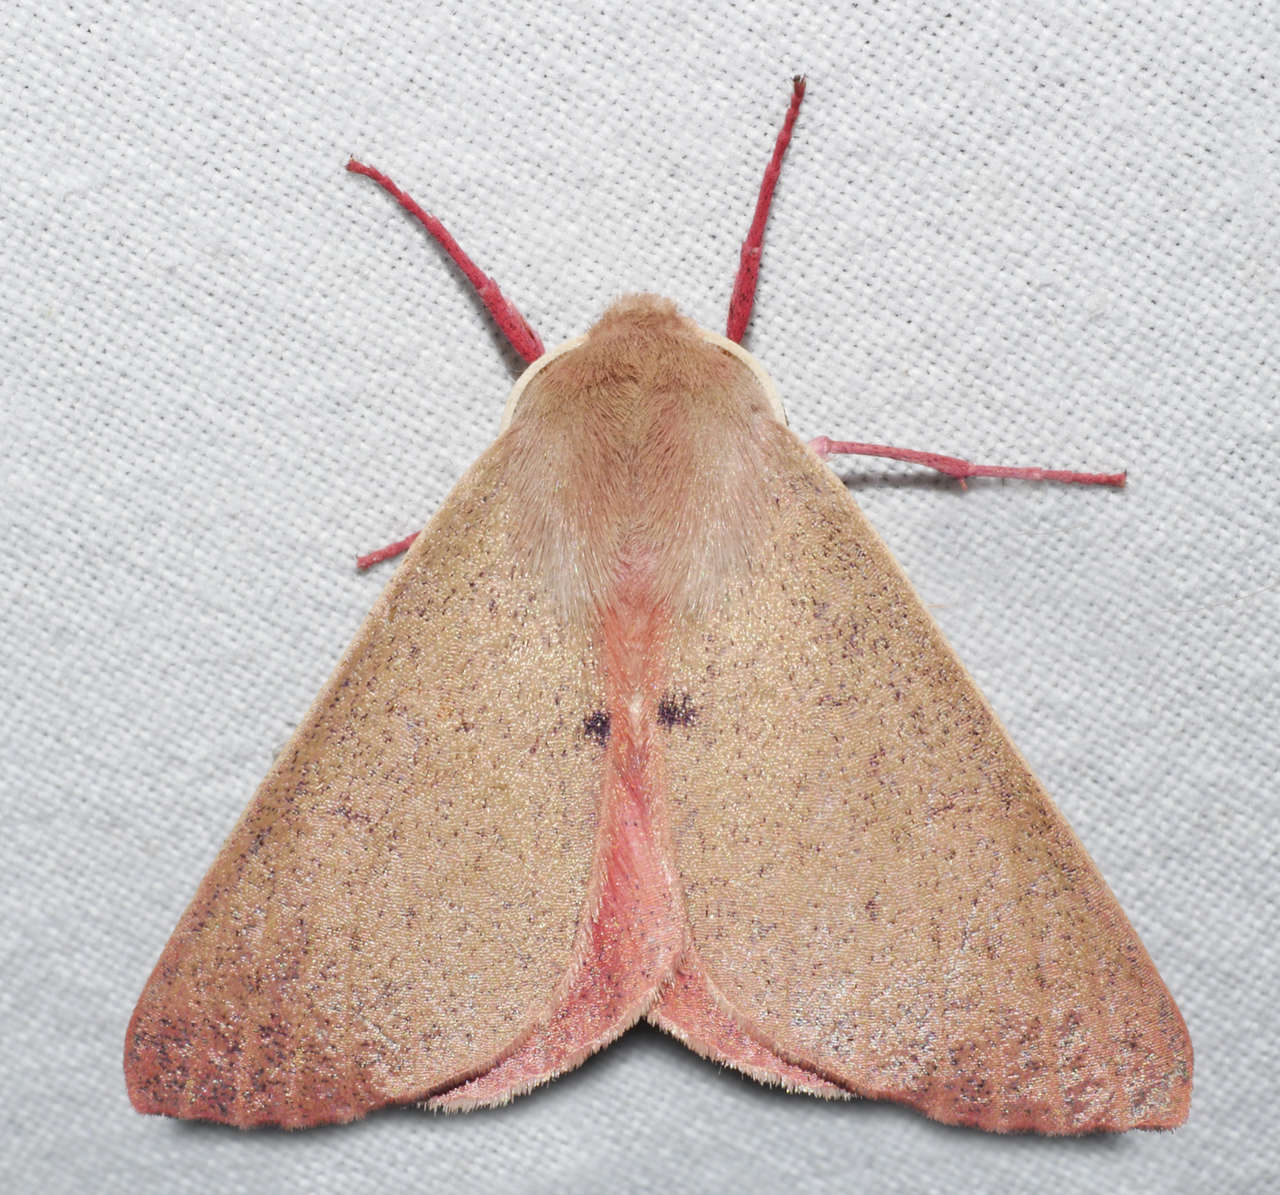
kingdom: Animalia
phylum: Arthropoda
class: Insecta
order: Lepidoptera
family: Geometridae
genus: Arhodia
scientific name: Arhodia lasiocamparia
